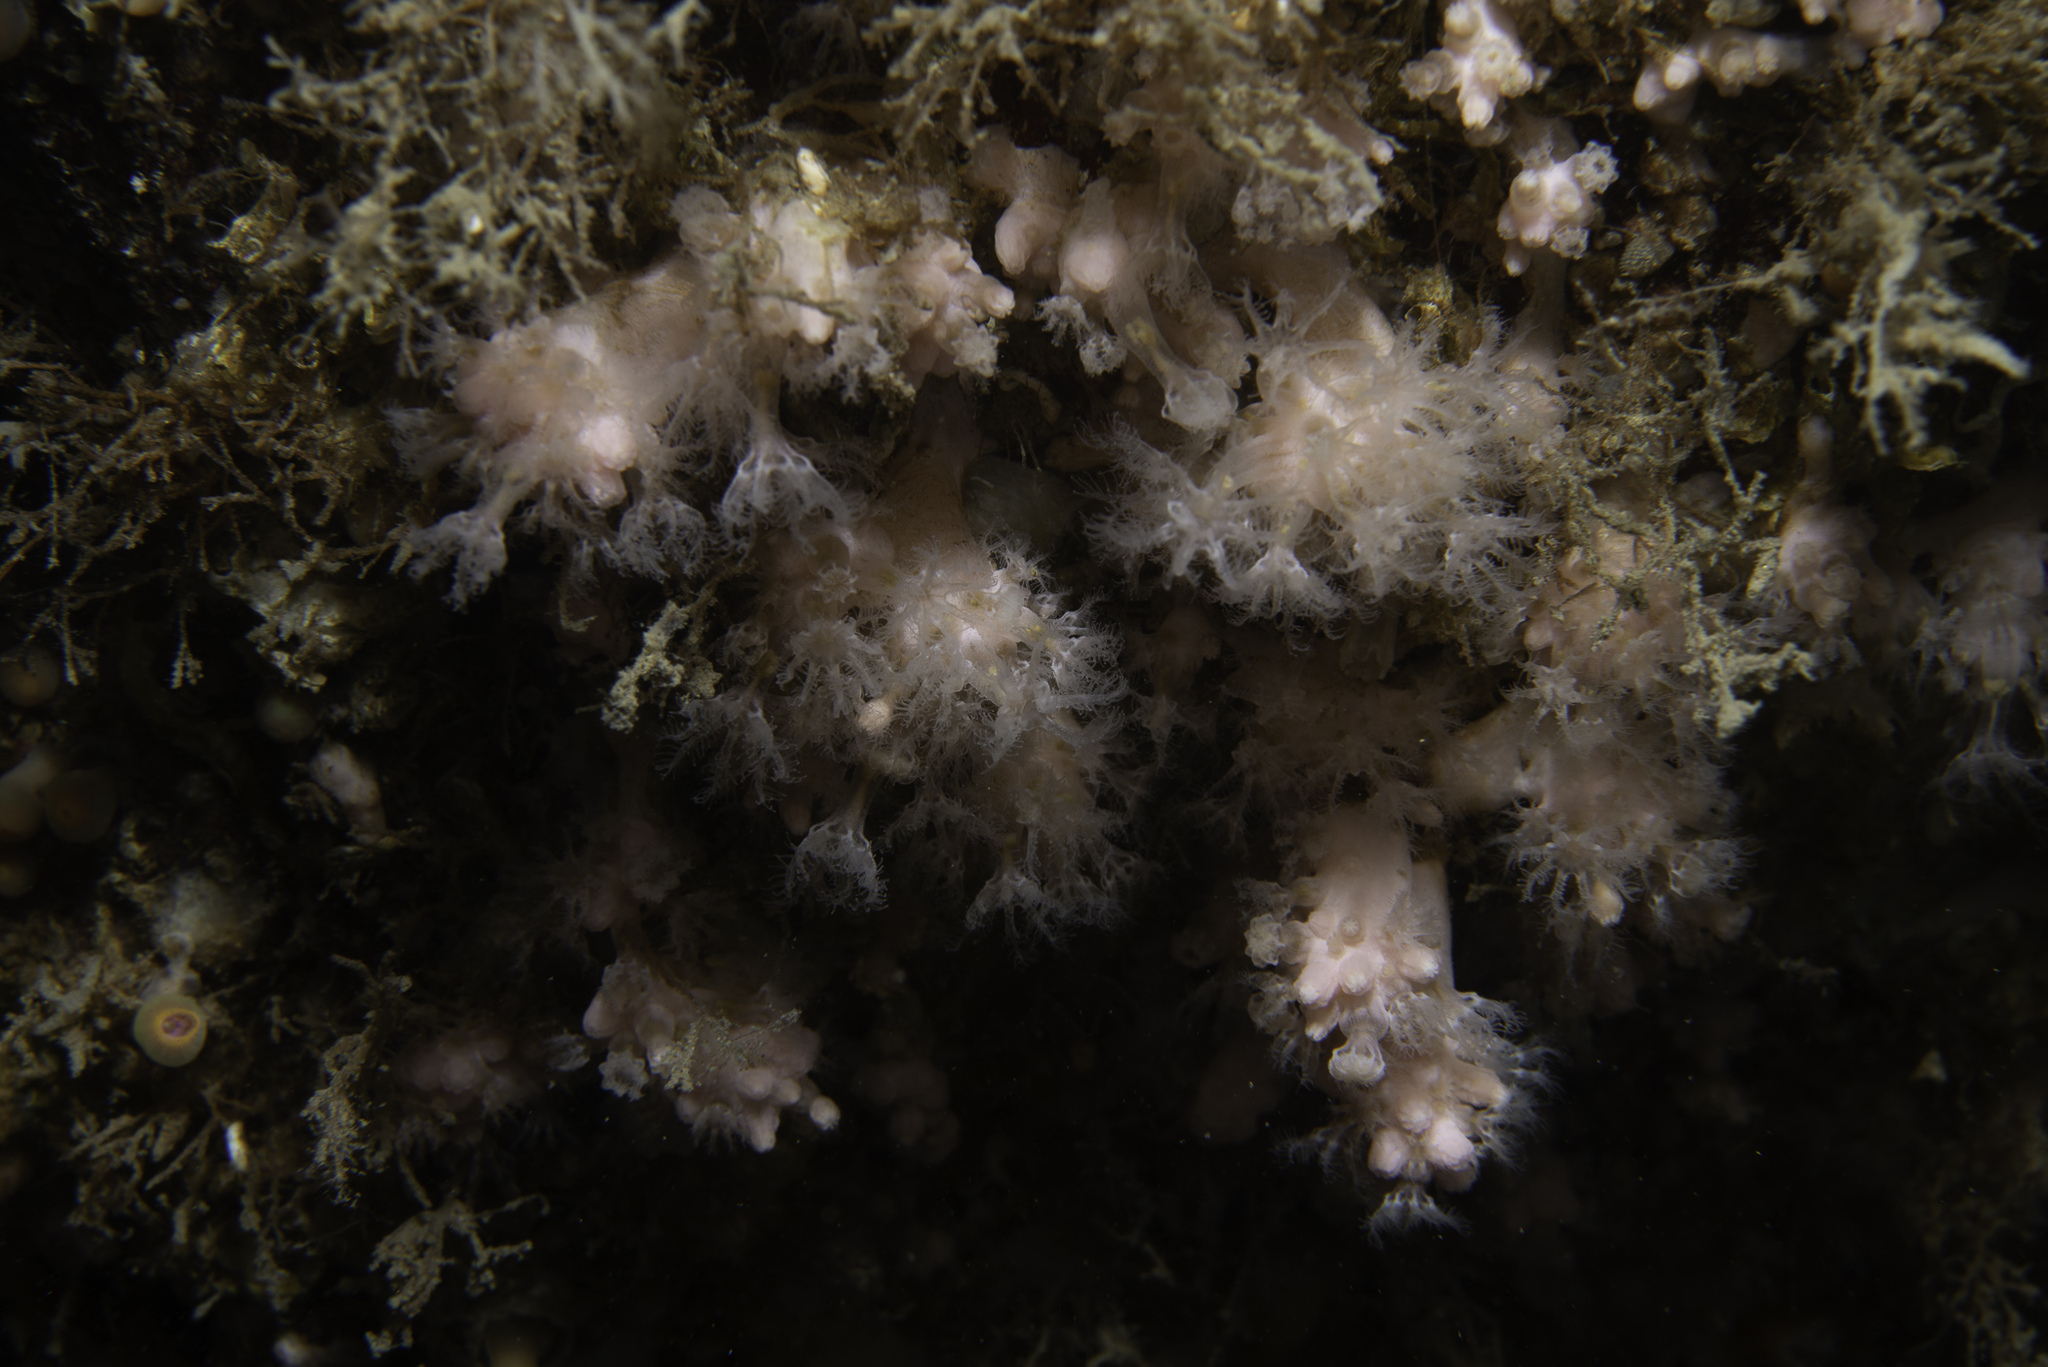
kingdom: Animalia
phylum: Cnidaria
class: Anthozoa
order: Malacalcyonacea
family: Alcyoniidae
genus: Alcyonium
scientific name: Alcyonium hibernicum
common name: Pink sea fingers
